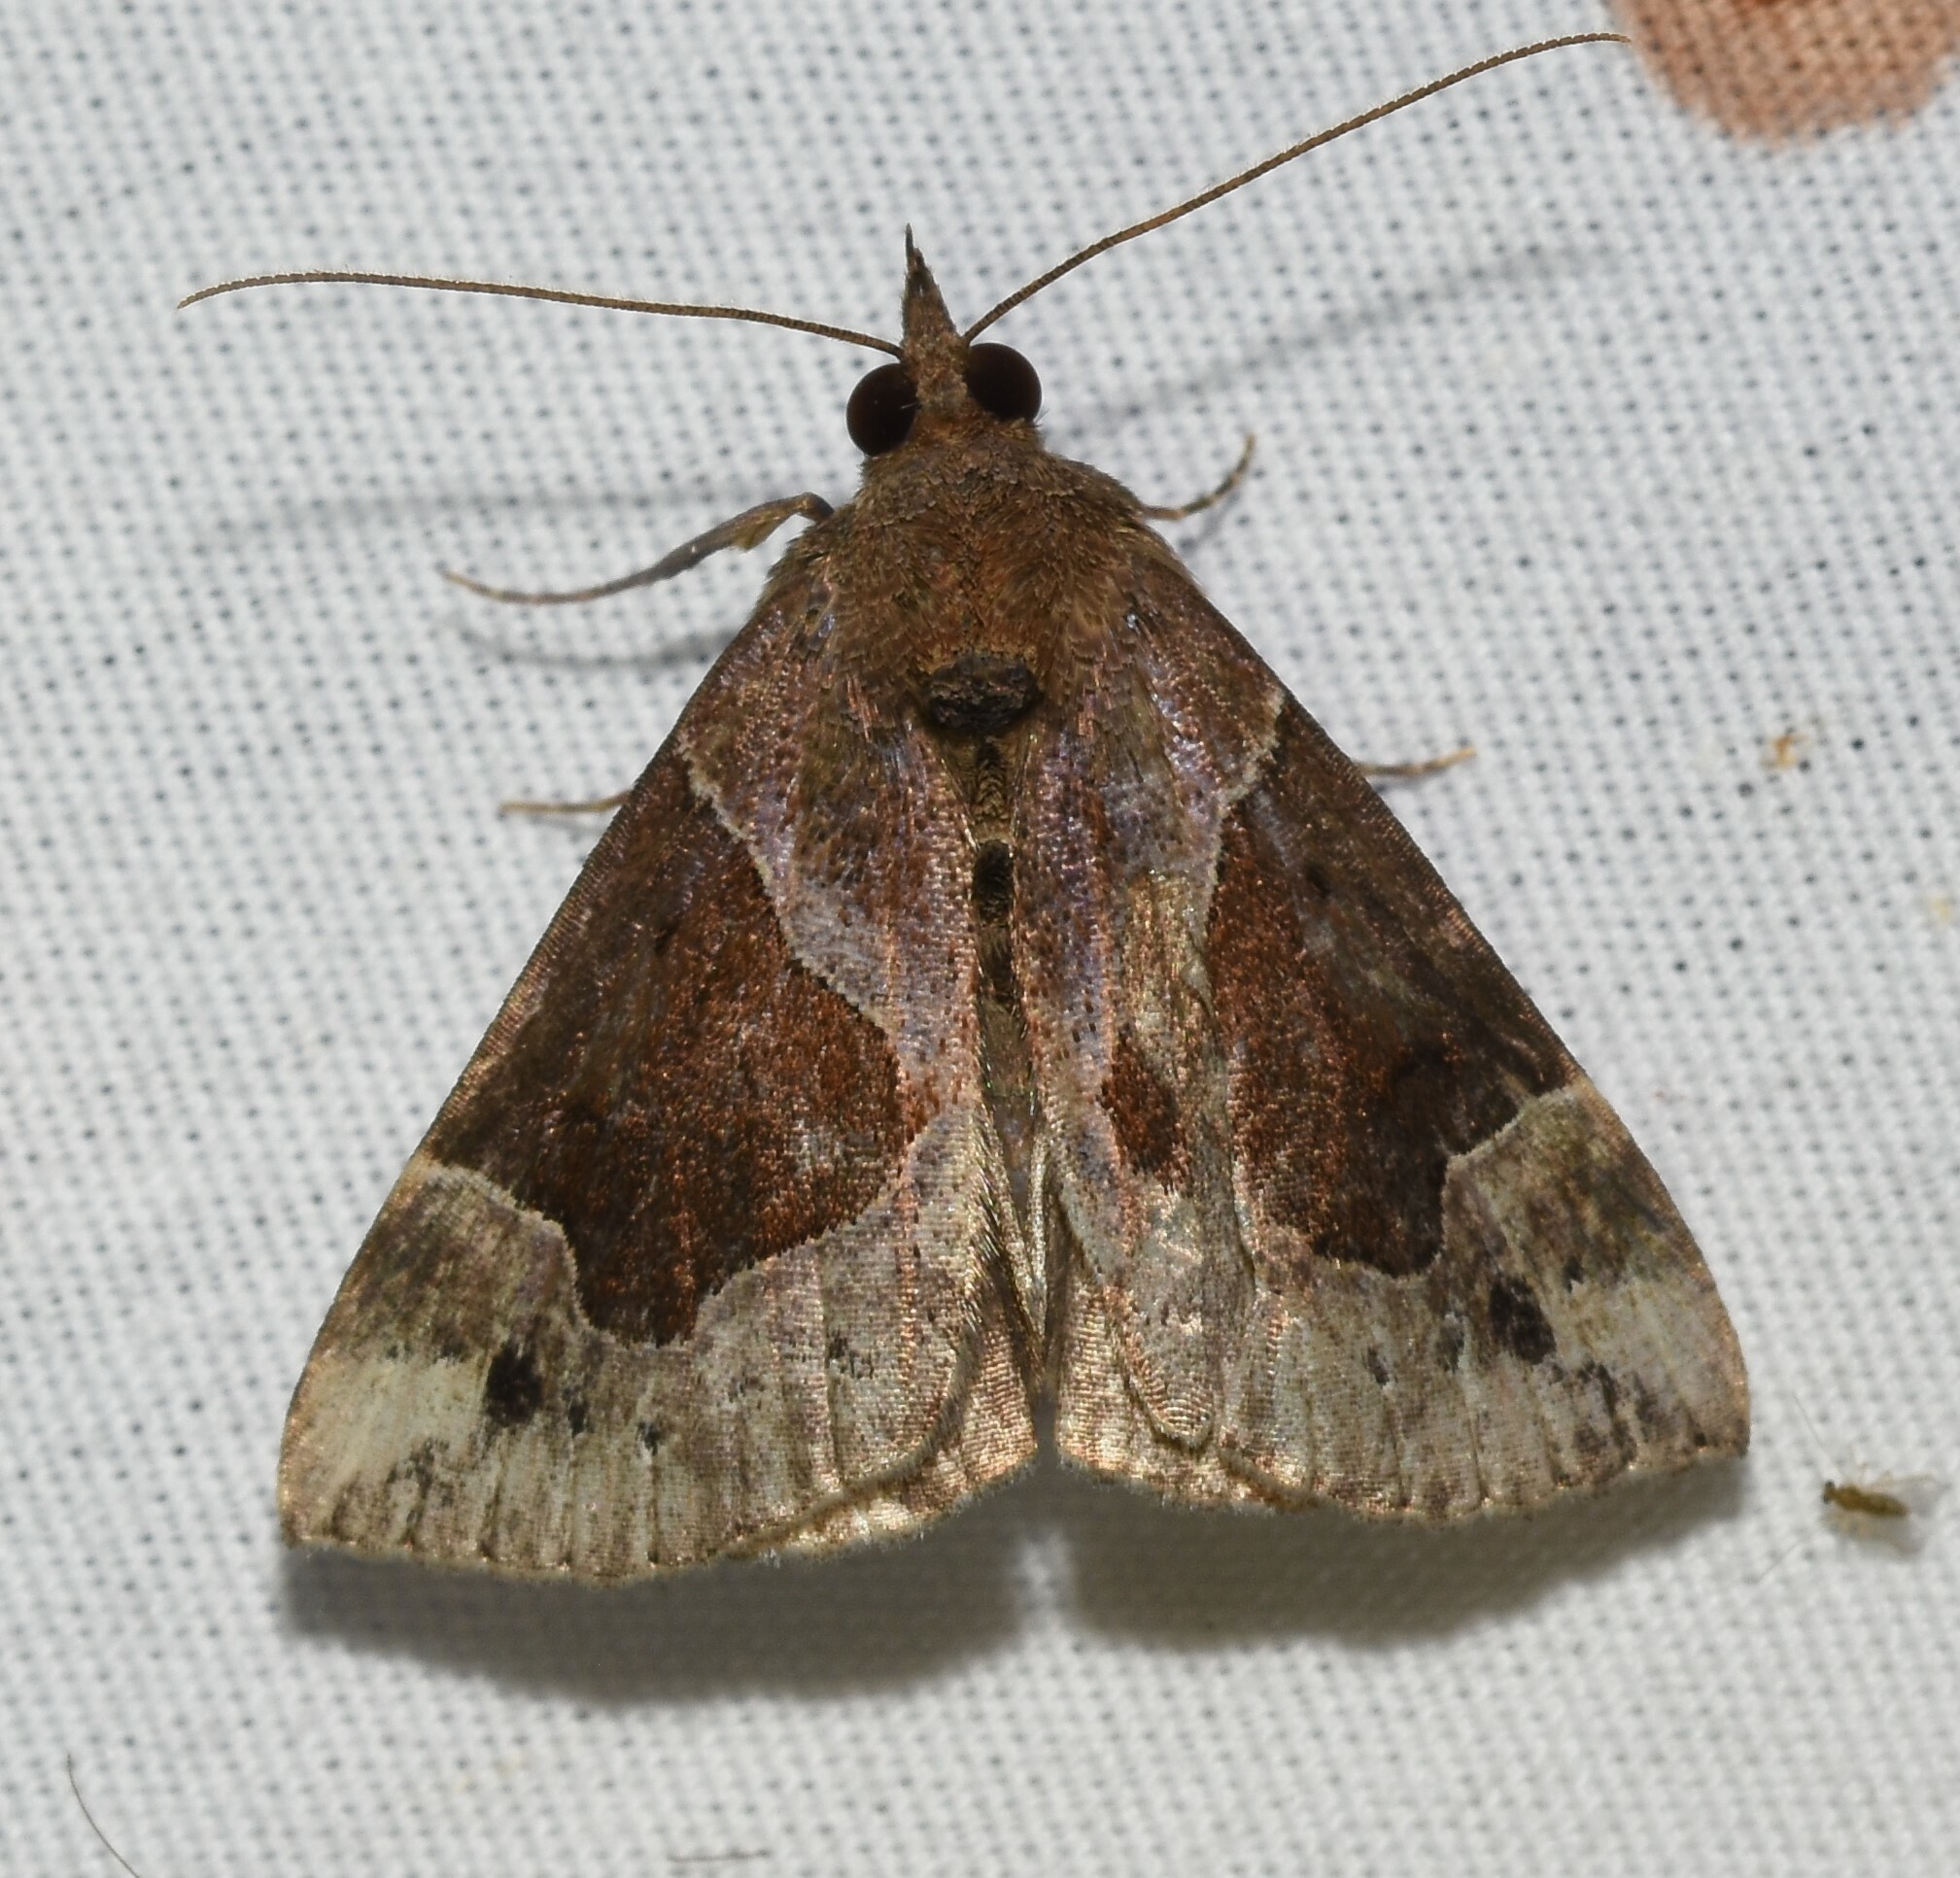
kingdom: Animalia
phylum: Arthropoda
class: Insecta
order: Lepidoptera
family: Erebidae
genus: Hypena
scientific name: Hypena manalis
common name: Flowing-line bomolocha moth
